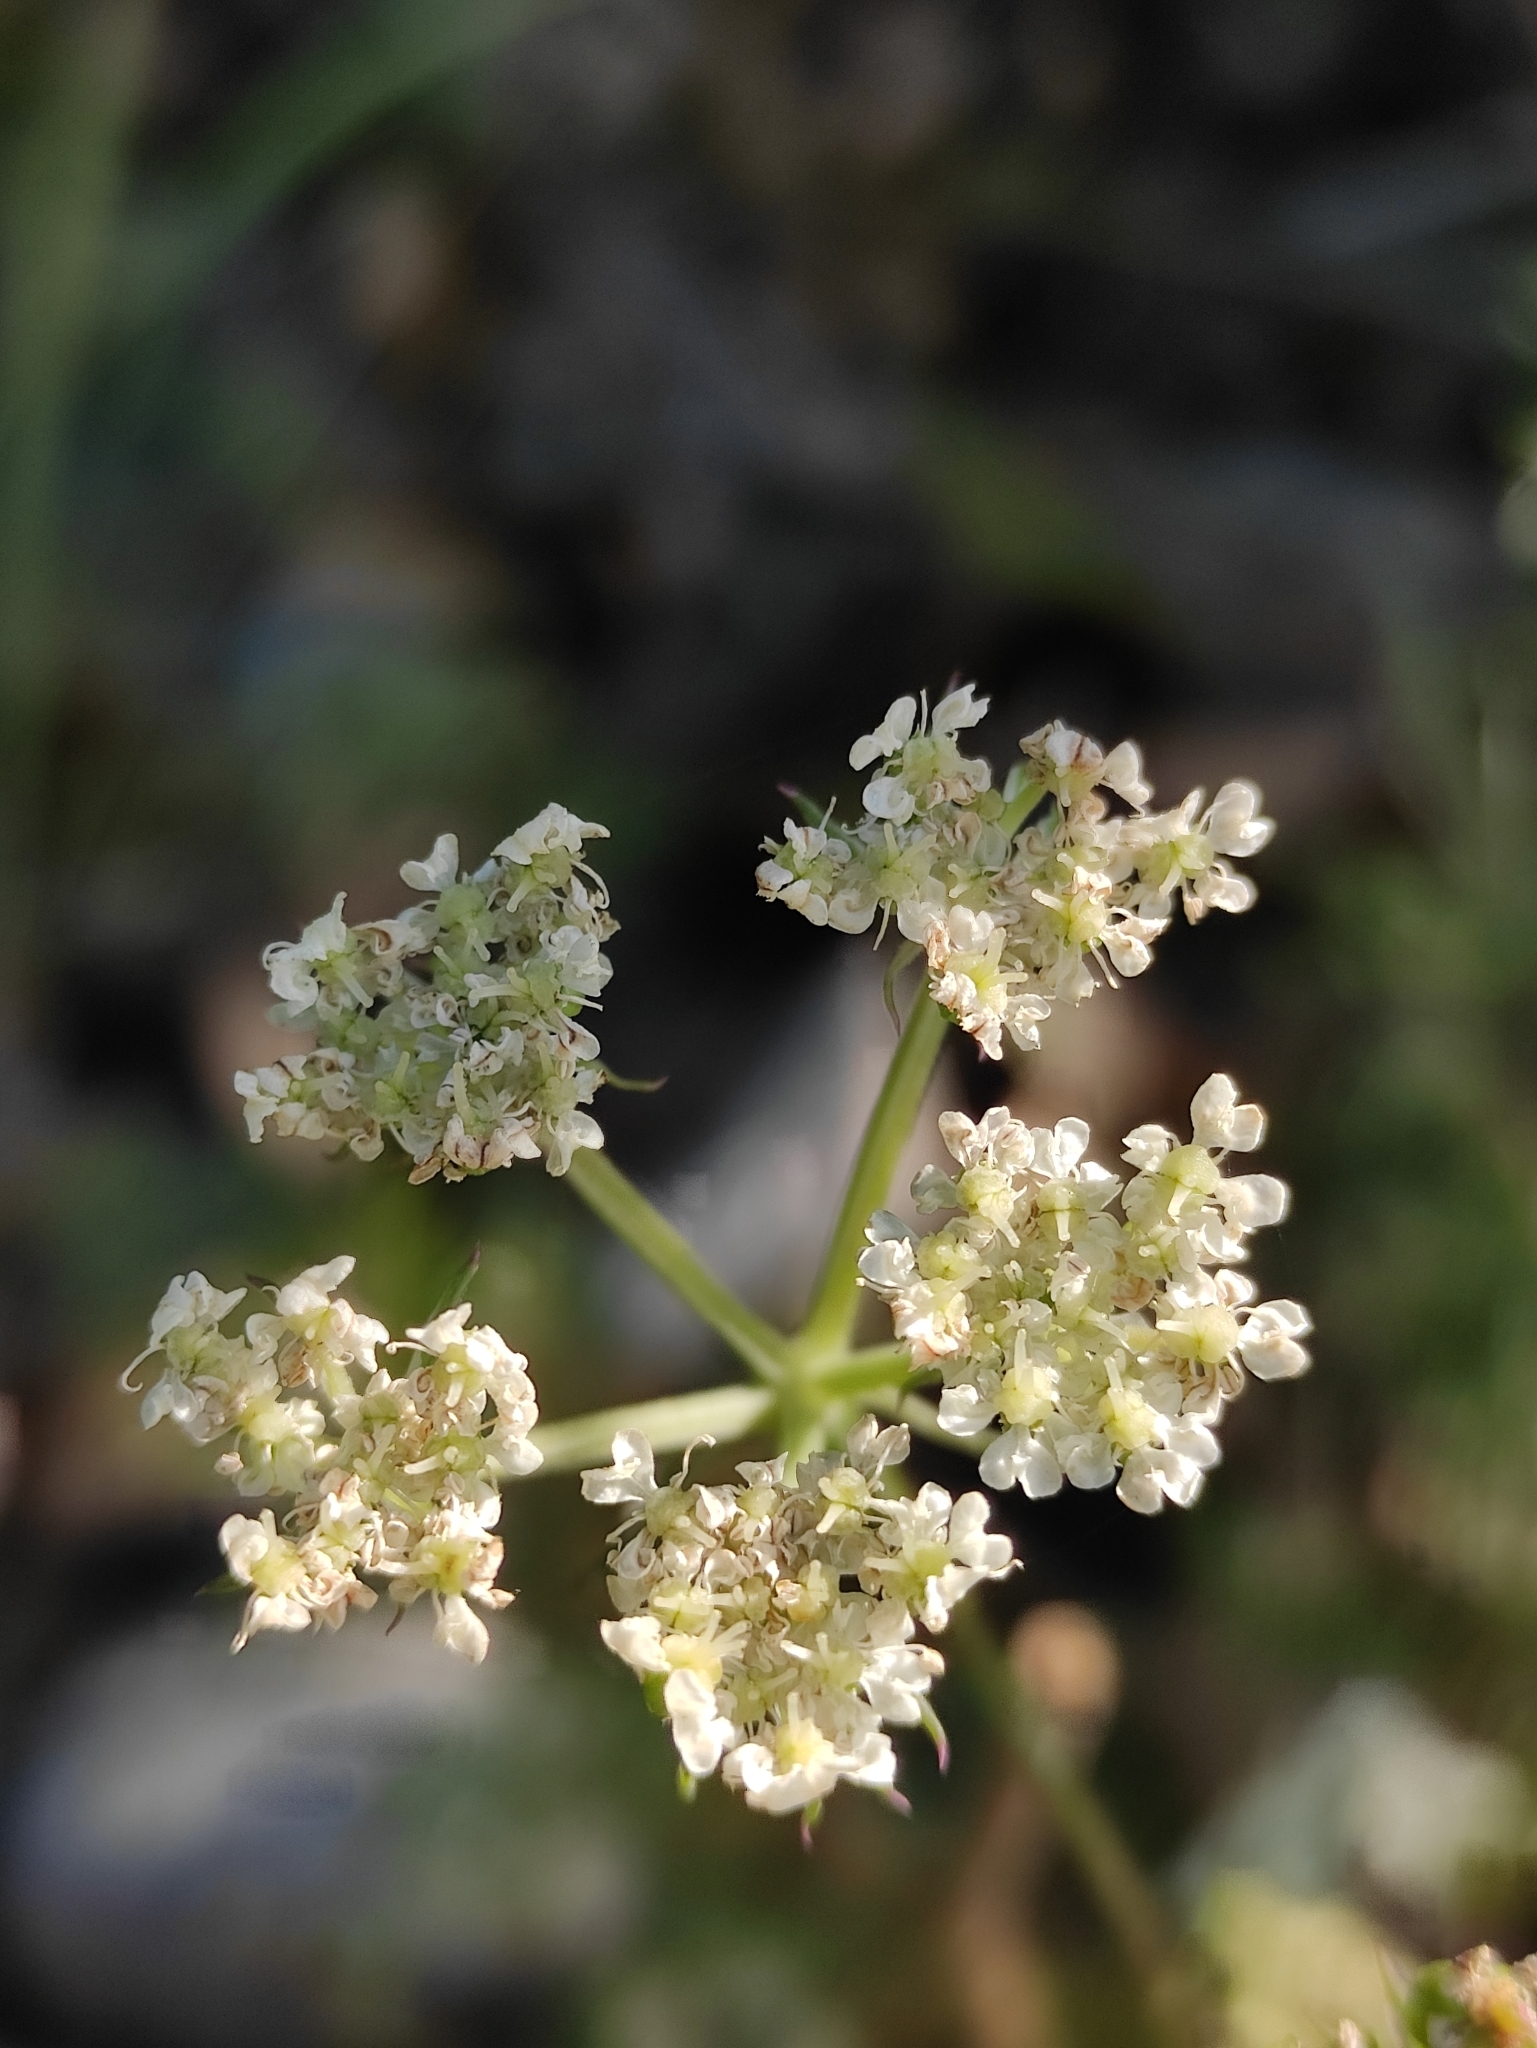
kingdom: Plantae
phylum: Tracheophyta
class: Magnoliopsida
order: Apiales
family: Apiaceae
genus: Kitagawia
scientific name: Kitagawia baicalensis
